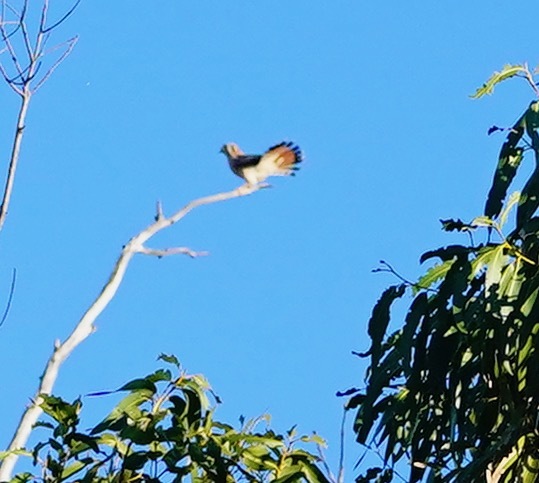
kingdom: Animalia
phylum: Chordata
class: Aves
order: Falconiformes
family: Falconidae
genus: Falco
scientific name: Falco sparverius
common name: American kestrel
